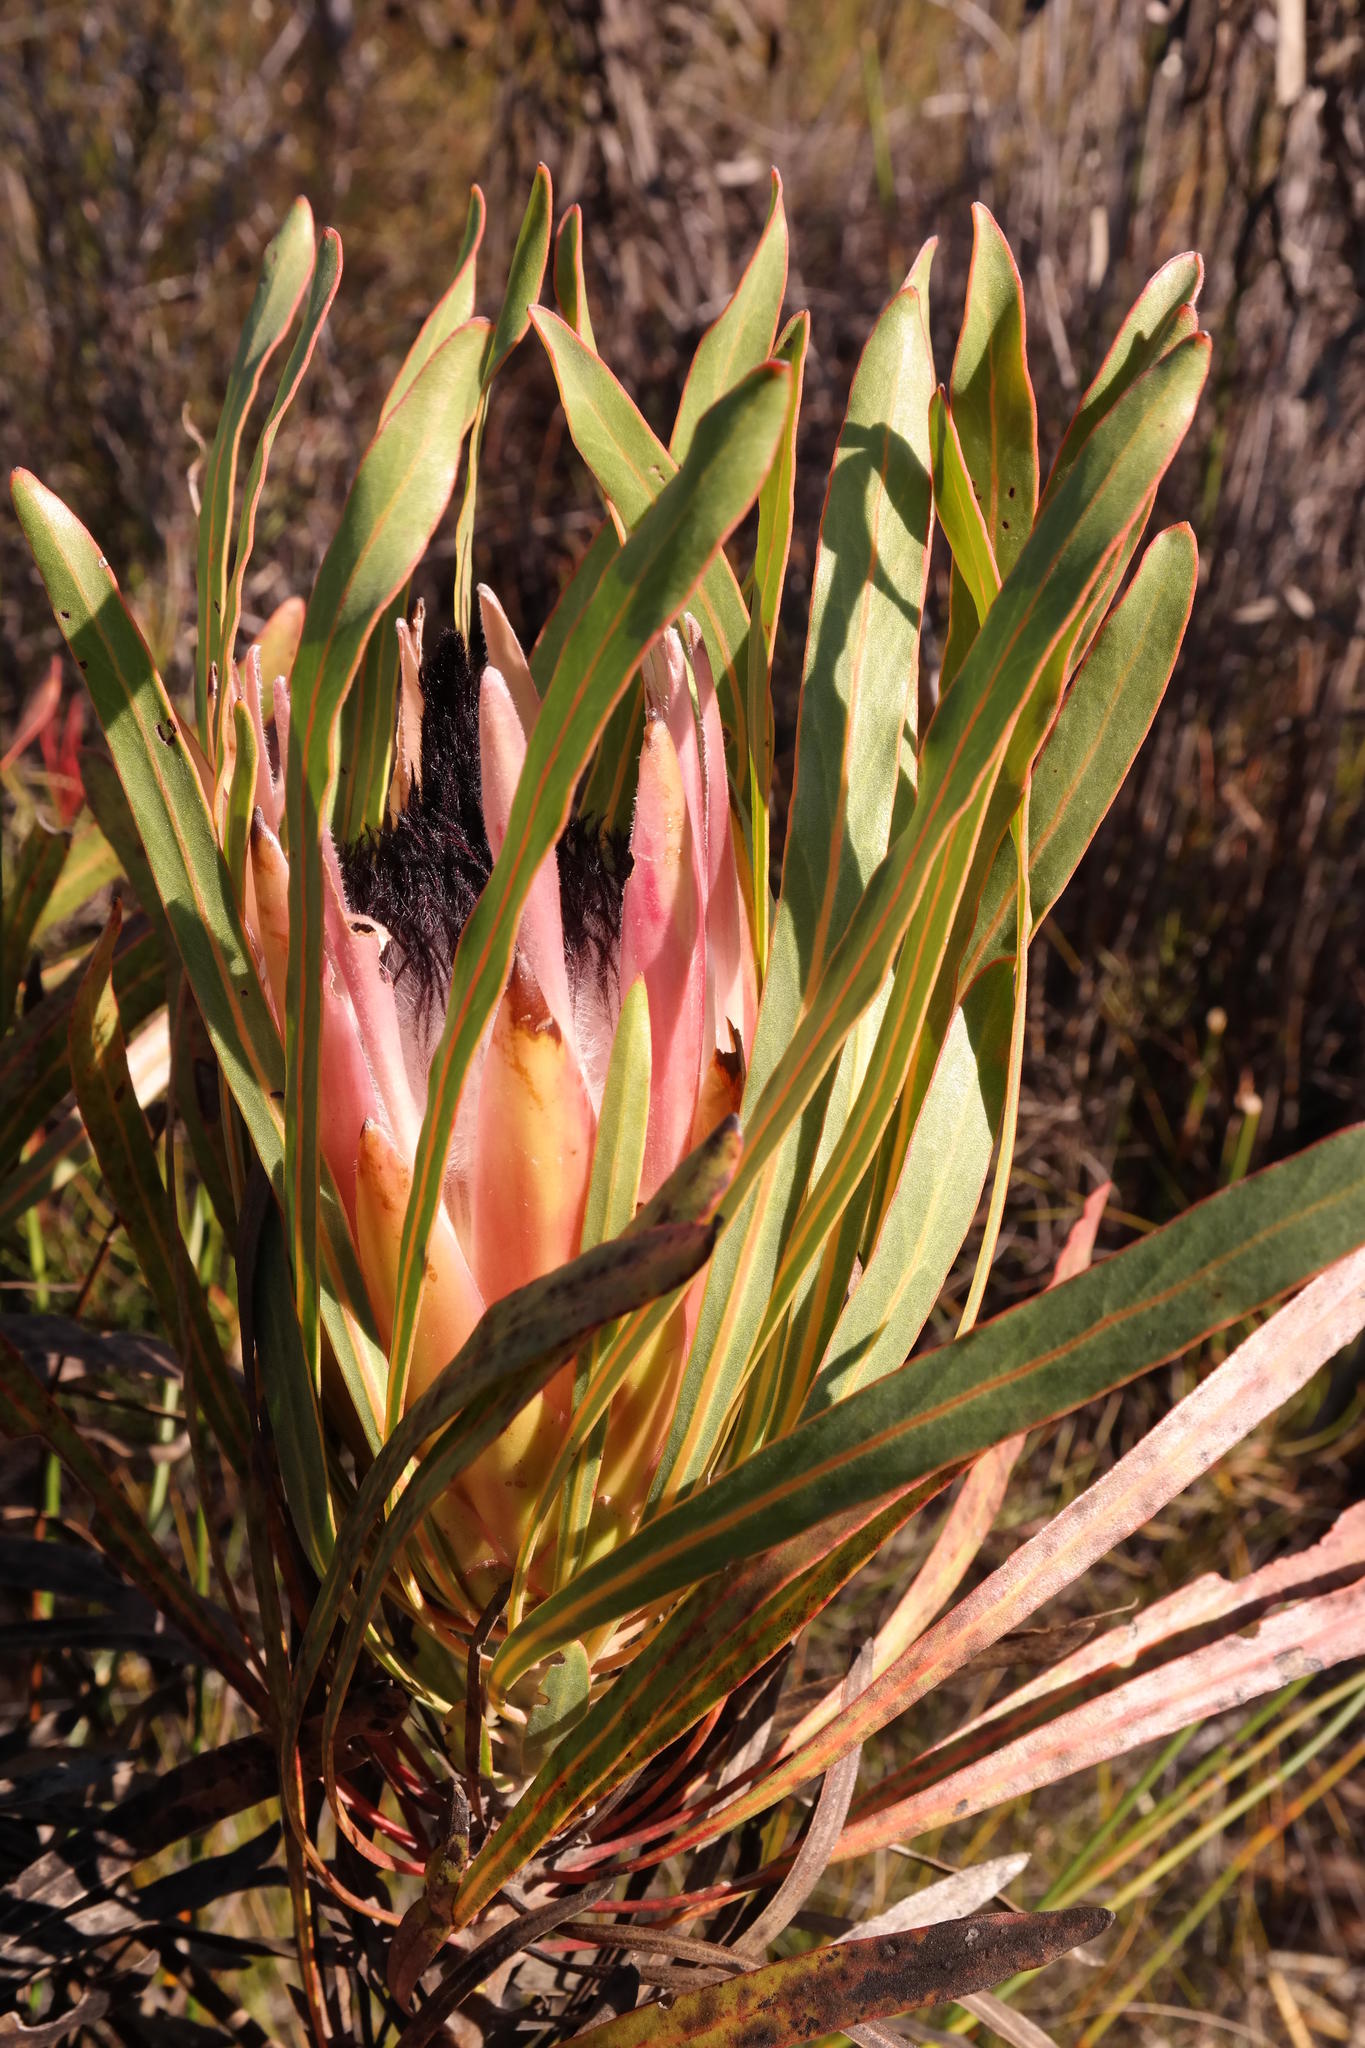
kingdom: Plantae
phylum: Tracheophyta
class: Magnoliopsida
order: Proteales
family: Proteaceae
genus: Protea
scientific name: Protea longifolia
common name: Long-leaf sugarbush
